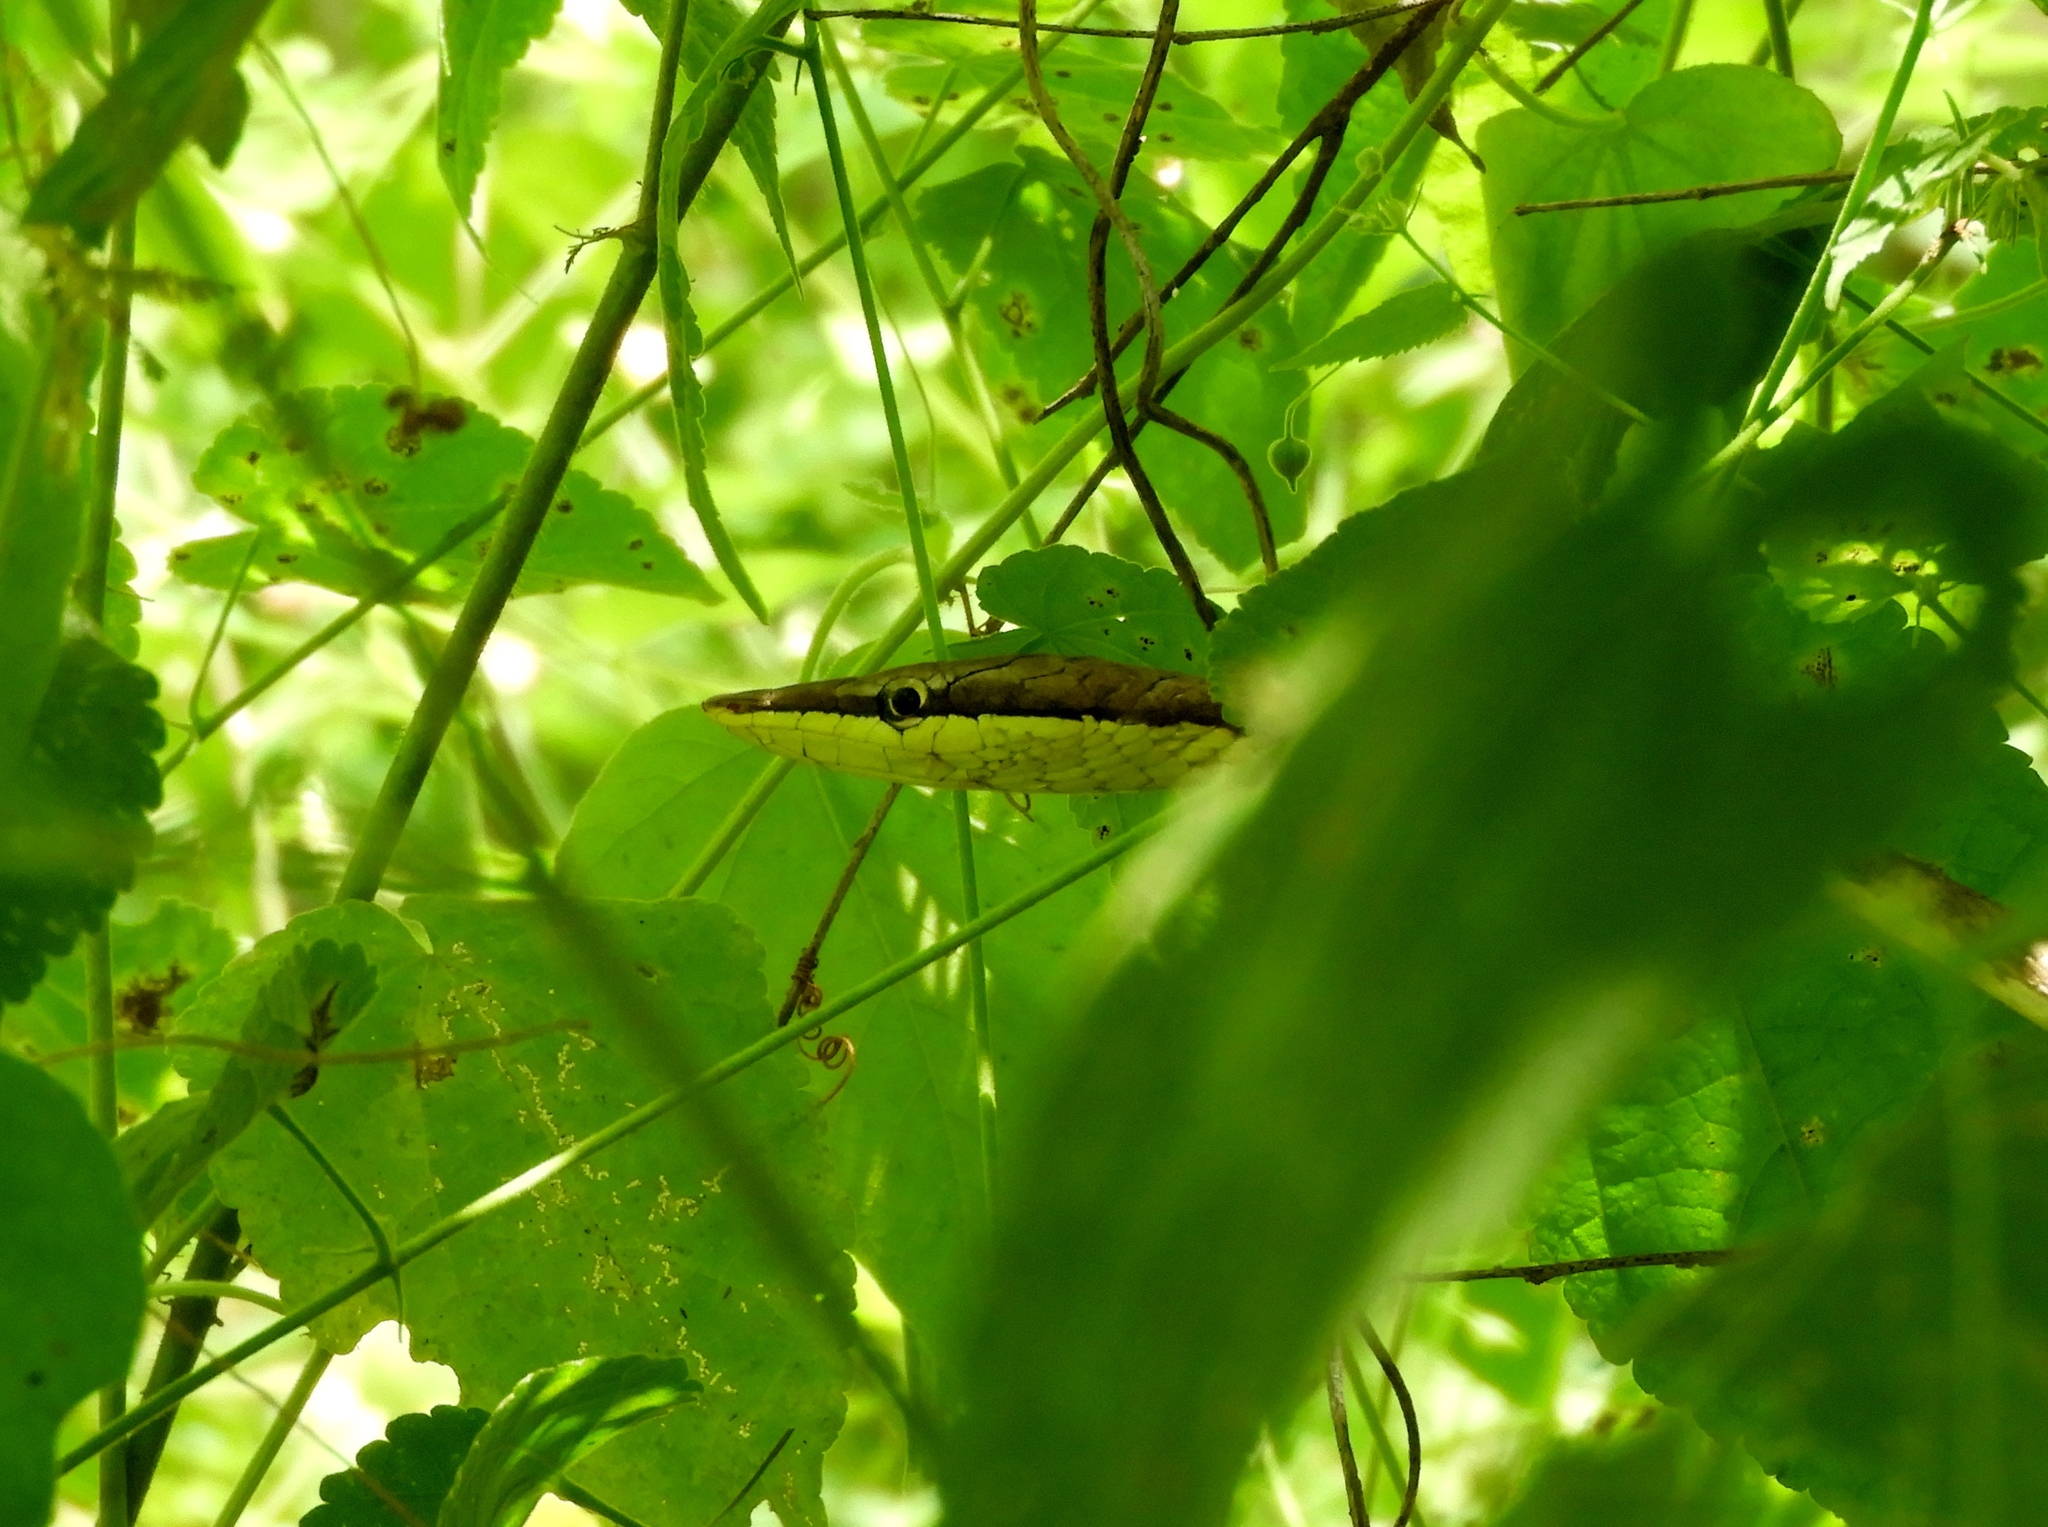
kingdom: Animalia
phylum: Chordata
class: Squamata
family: Colubridae
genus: Oxybelis
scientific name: Oxybelis microphthalmus
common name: Thrornscrub vine snake
